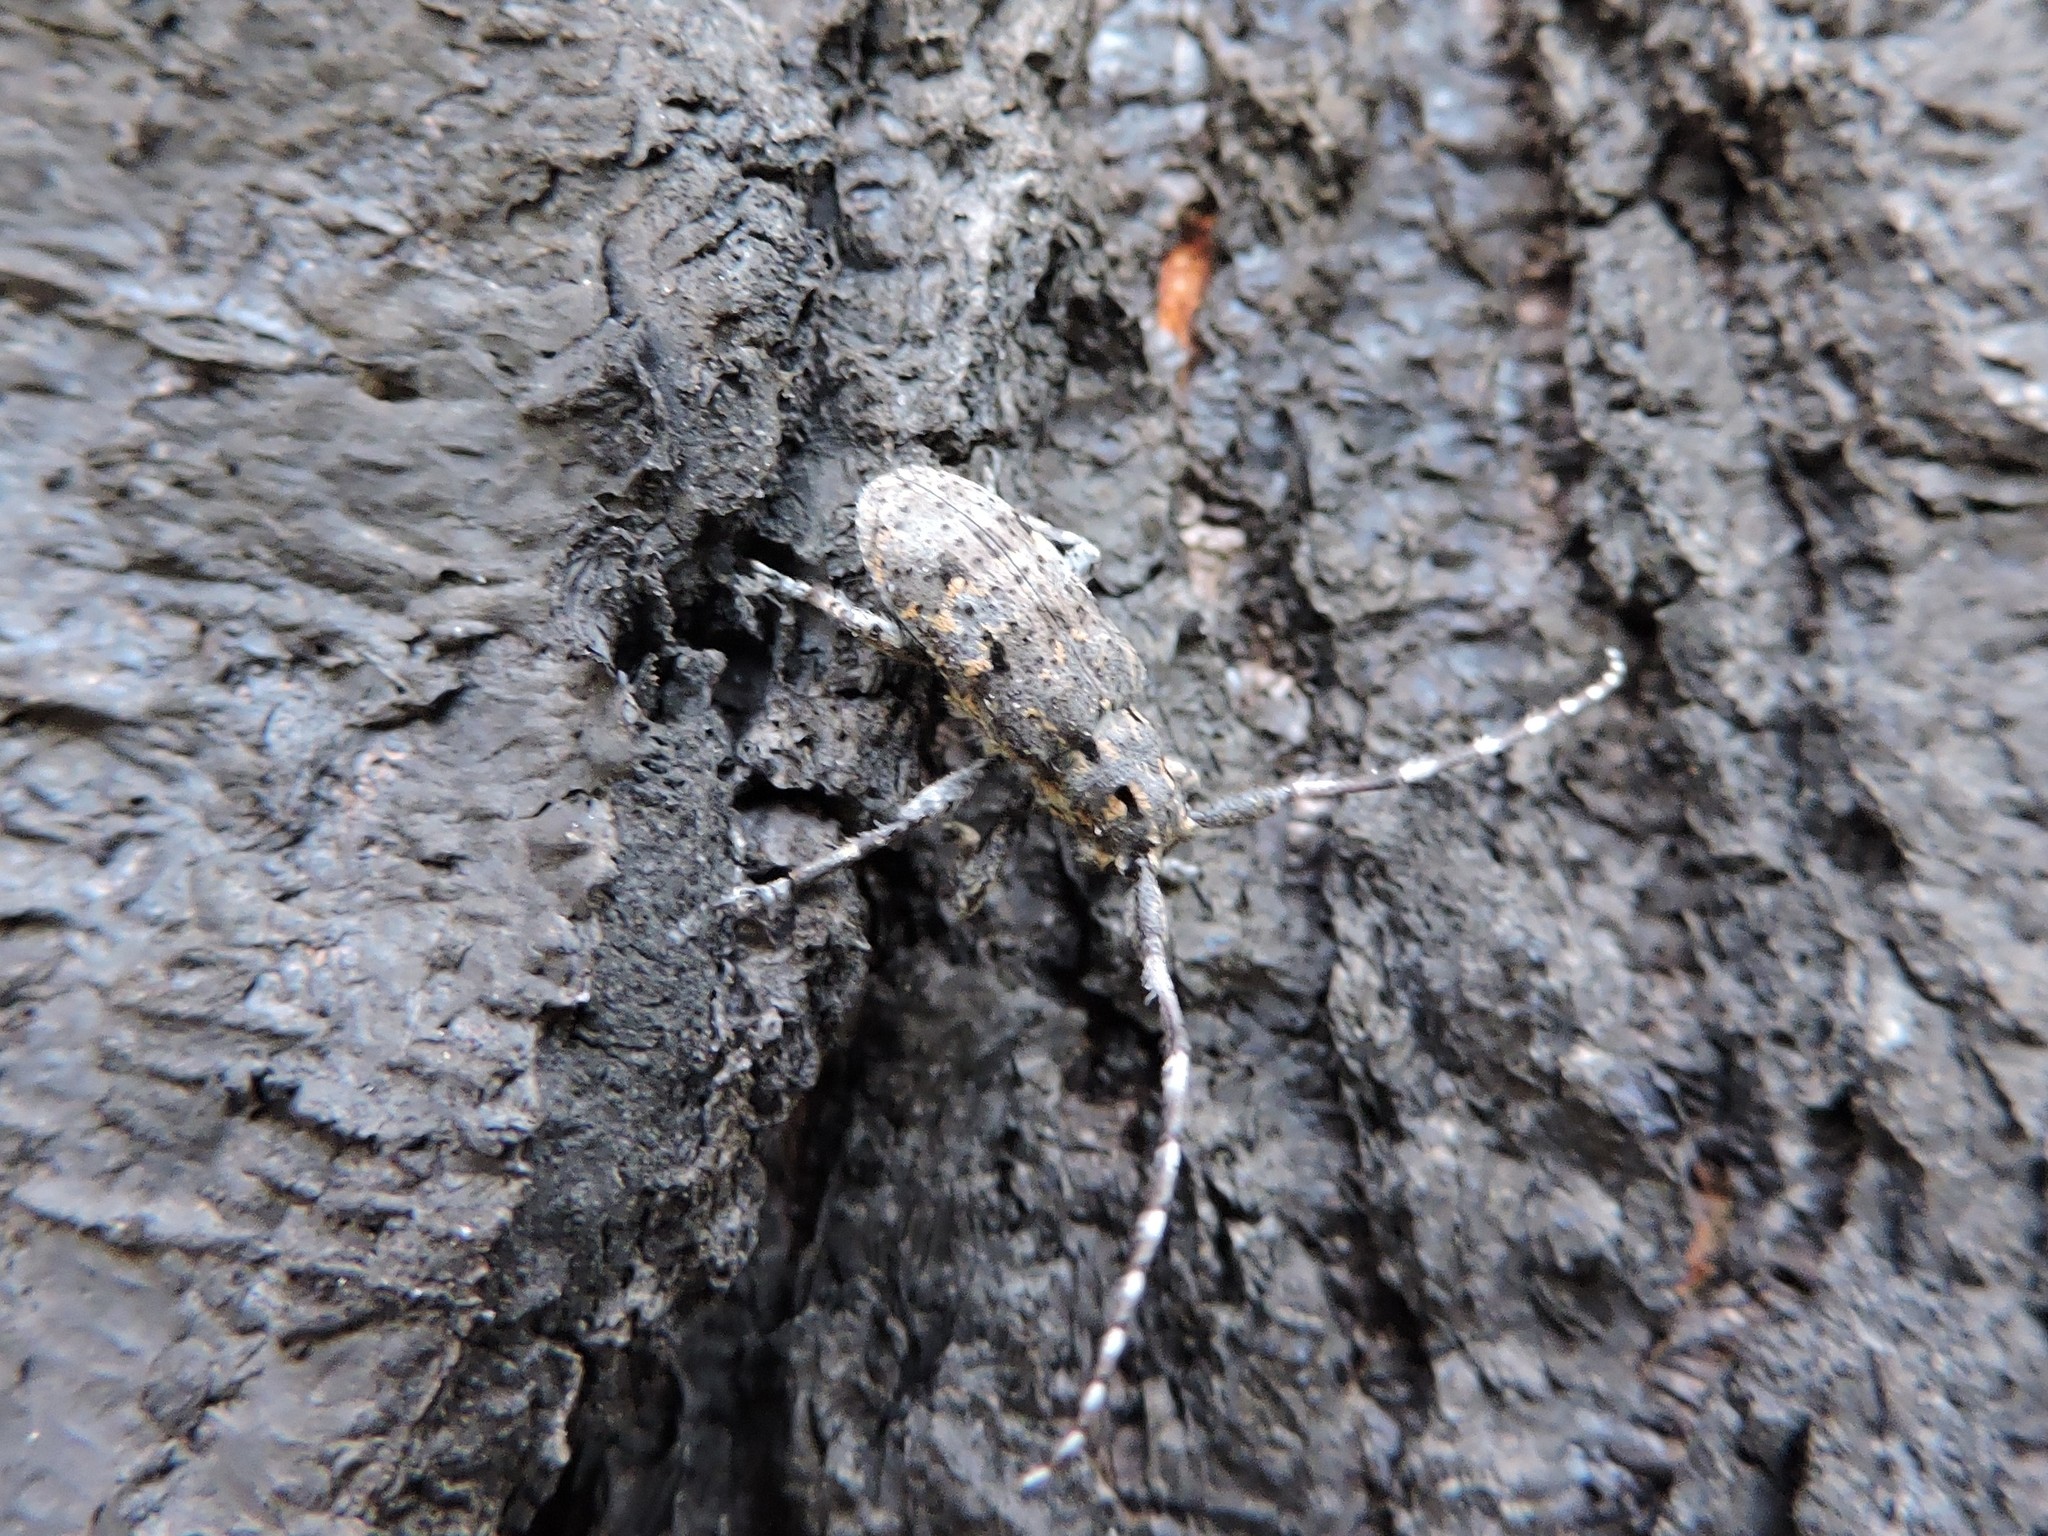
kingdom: Animalia
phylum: Arthropoda
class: Insecta
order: Coleoptera
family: Cerambycidae
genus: Mesosa
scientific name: Mesosa myops
